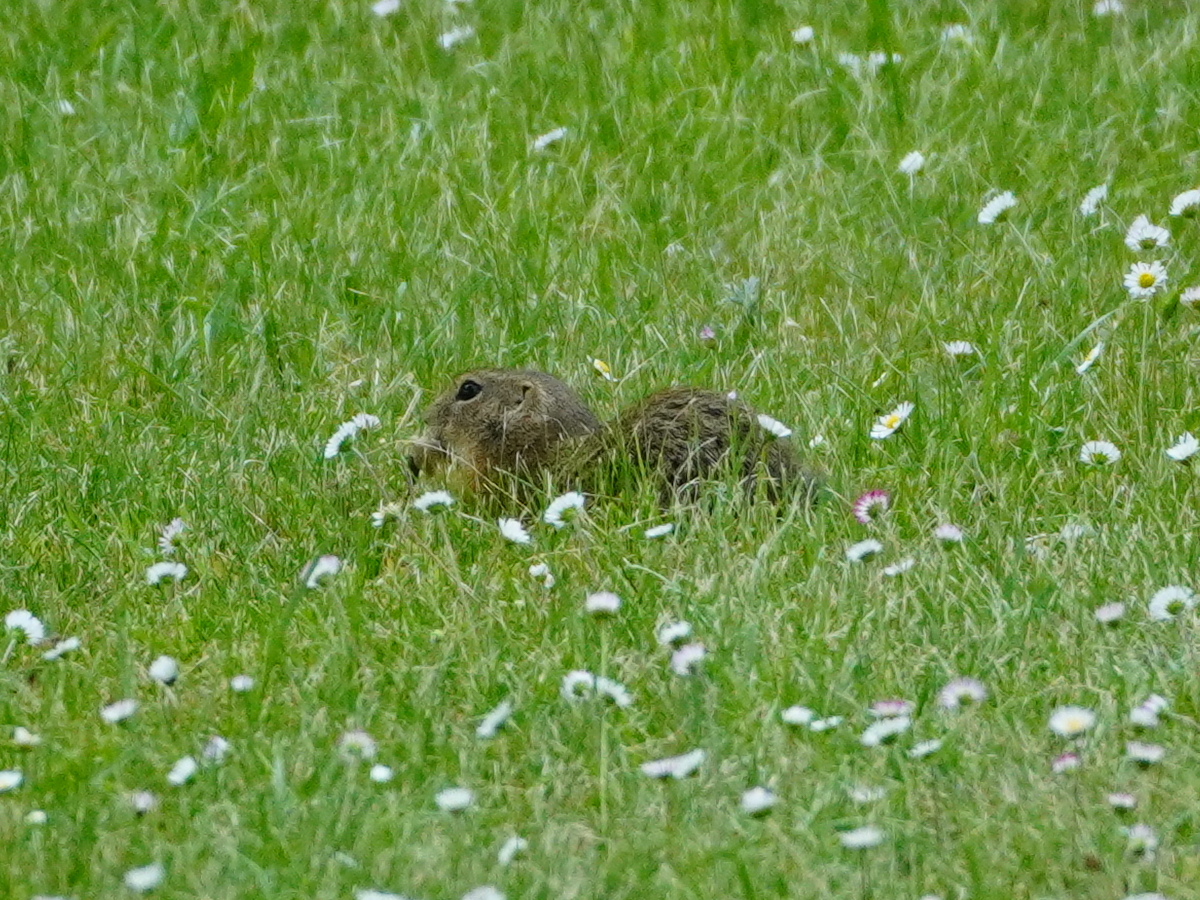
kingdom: Animalia
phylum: Chordata
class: Mammalia
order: Rodentia
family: Sciuridae
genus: Spermophilus
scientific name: Spermophilus citellus
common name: European ground squirrel
